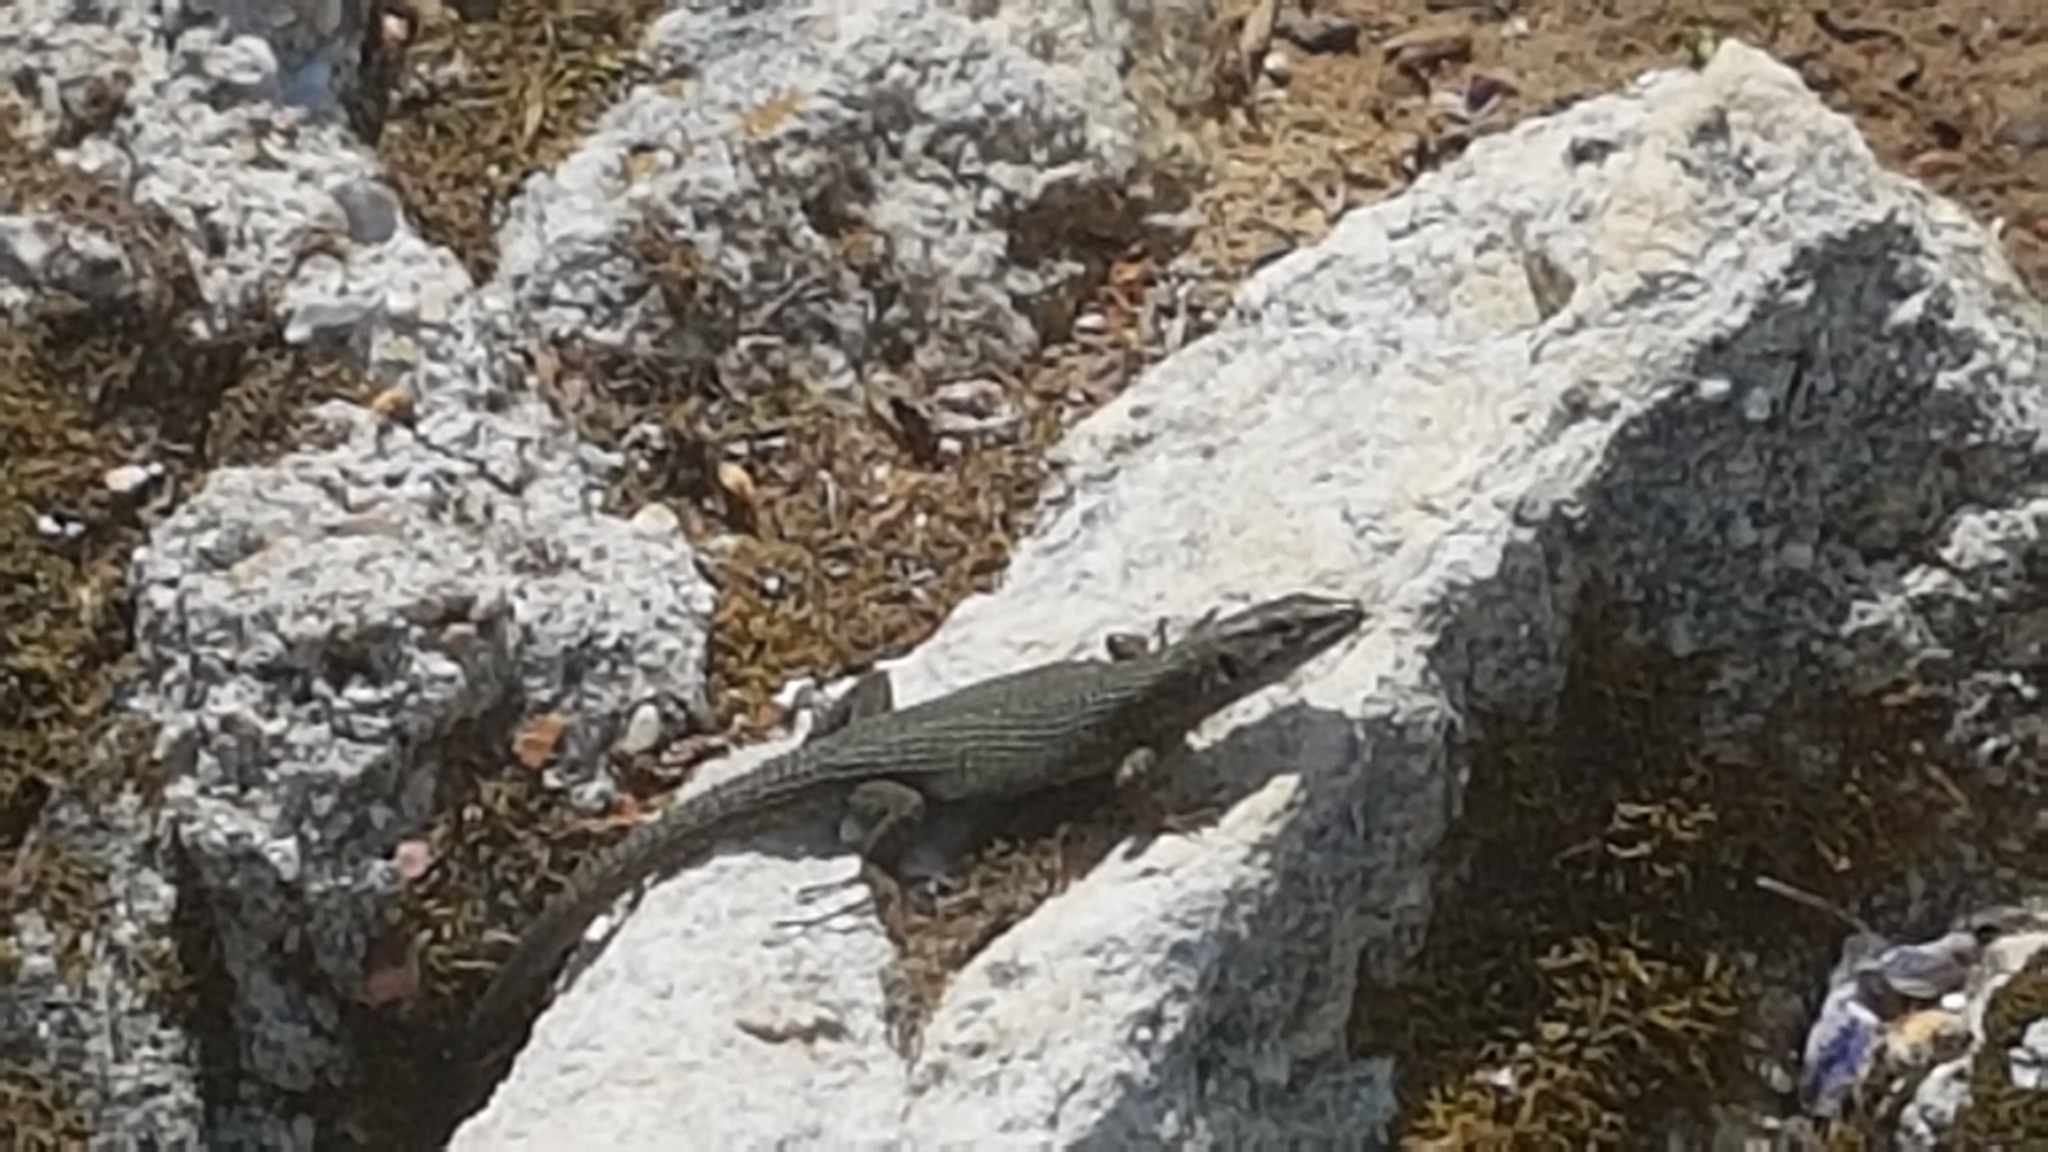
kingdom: Animalia
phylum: Chordata
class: Squamata
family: Lacertidae
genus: Algyroides
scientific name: Algyroides nigropunctatus
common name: Blue-throated keeled lizard
